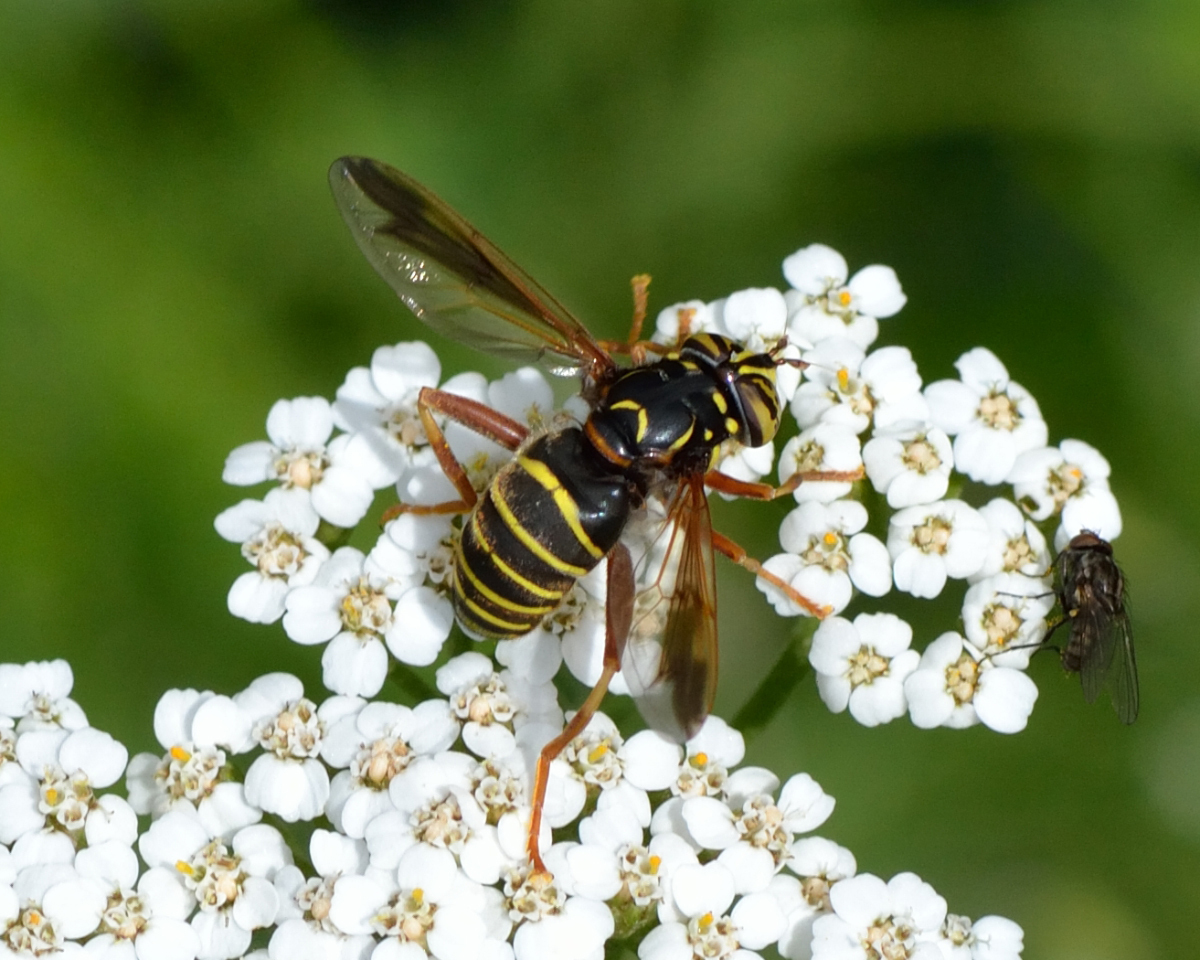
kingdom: Animalia
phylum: Arthropoda
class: Insecta
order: Diptera
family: Syrphidae
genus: Spilomyia
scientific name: Spilomyia diophthalma
